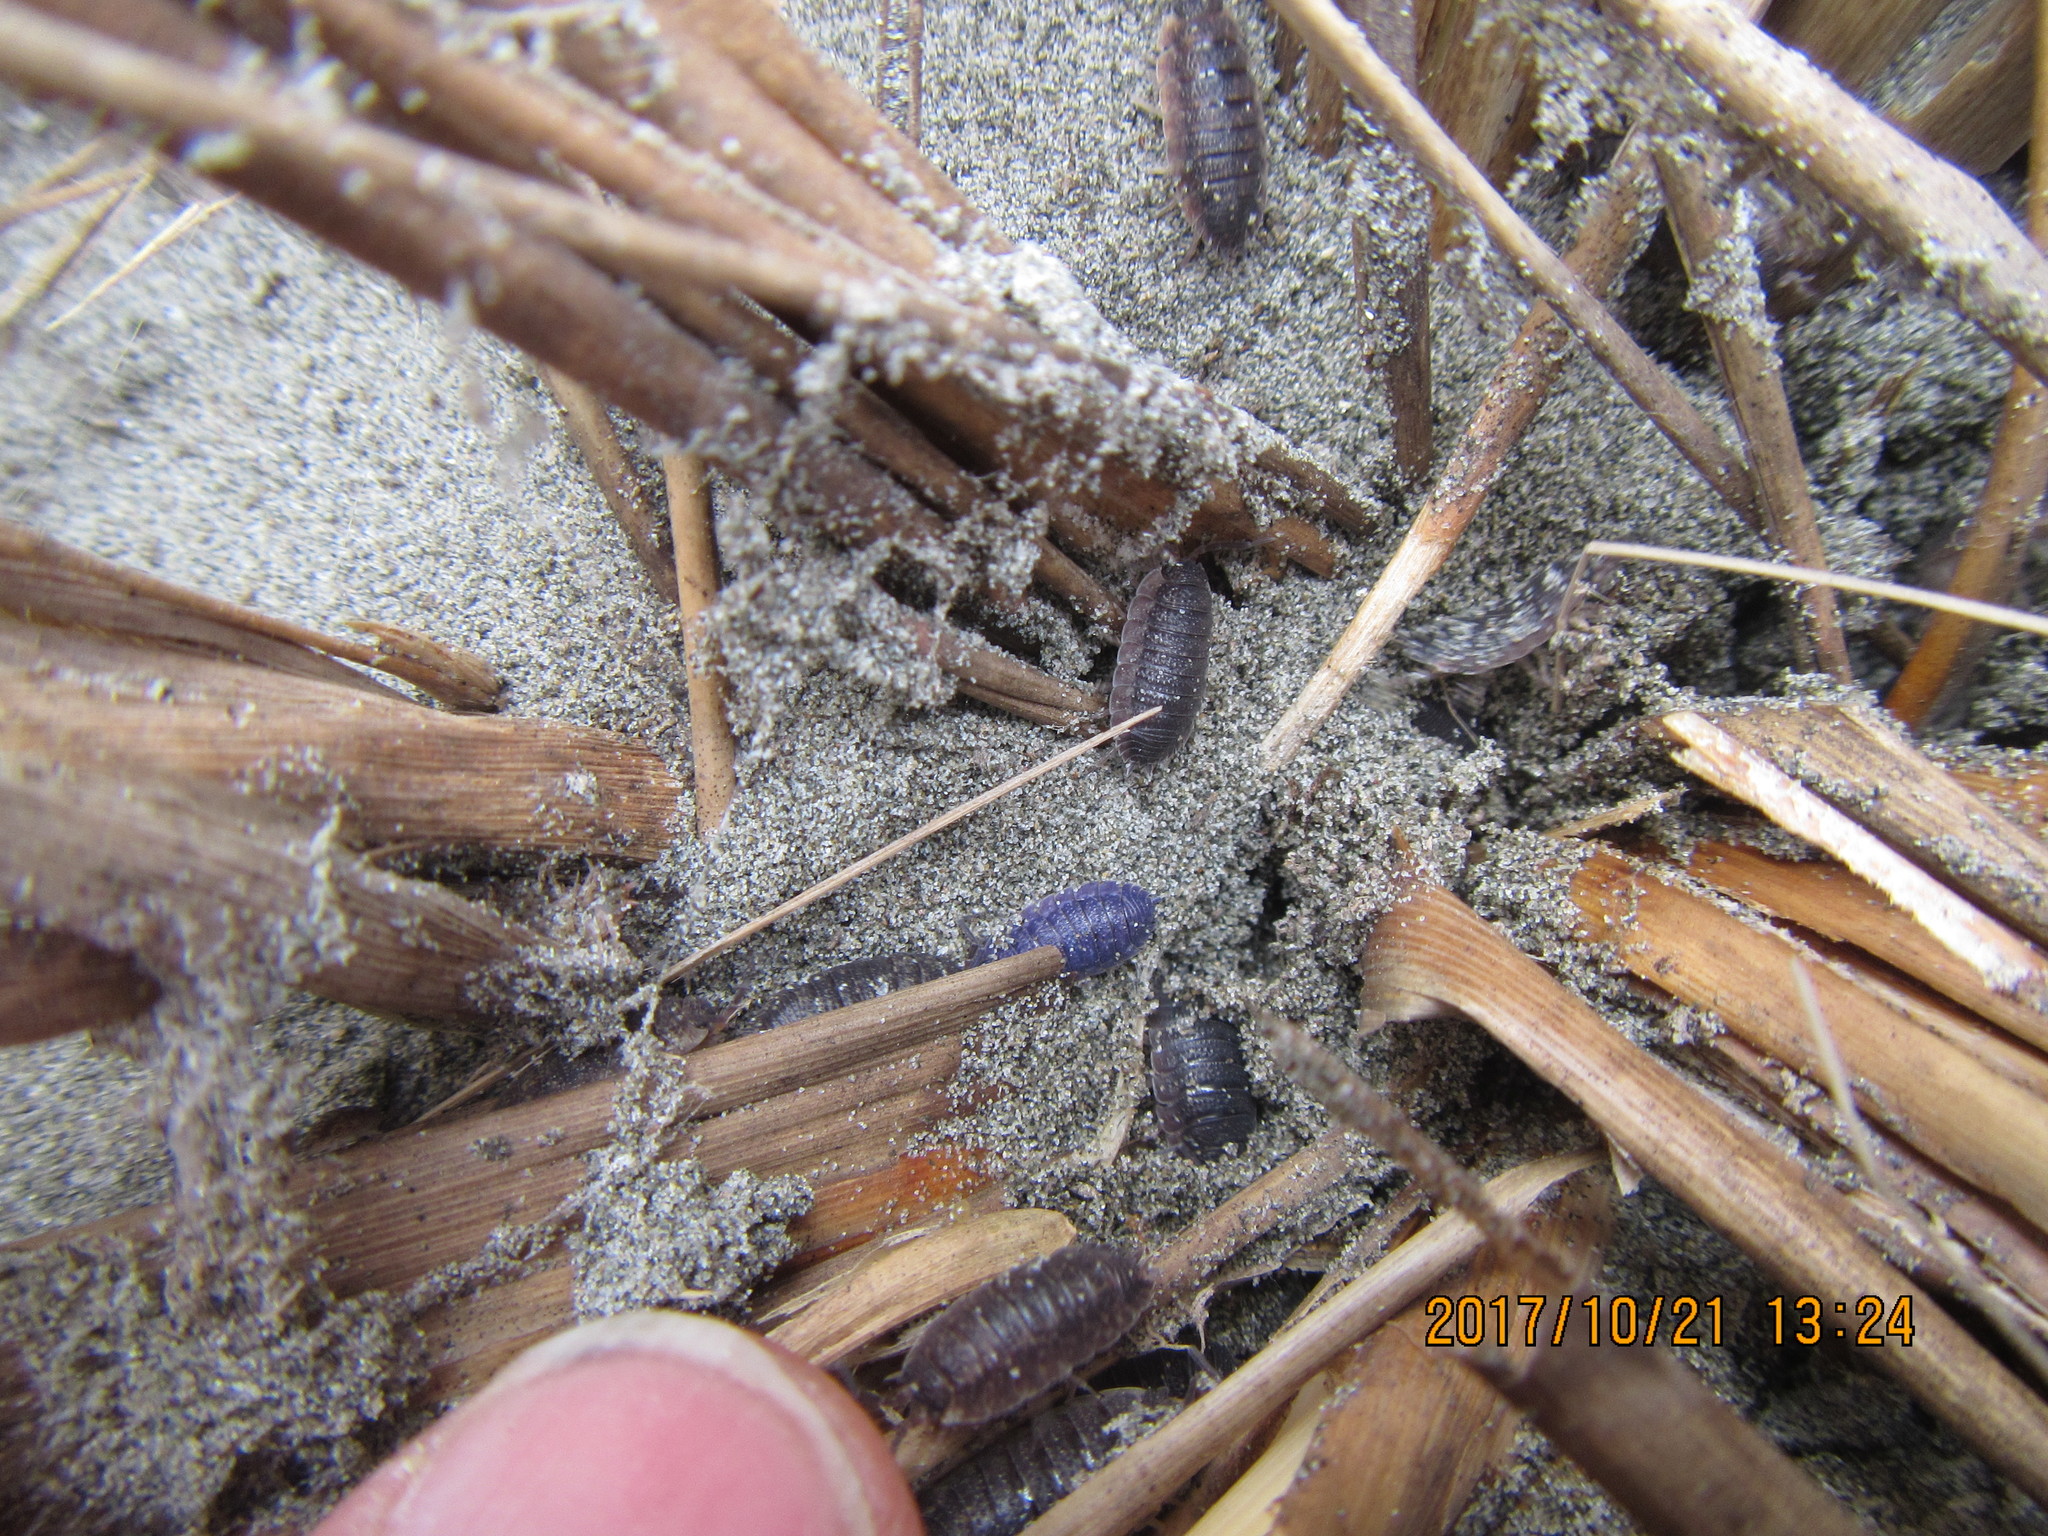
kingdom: Animalia
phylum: Arthropoda
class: Malacostraca
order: Isopoda
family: Porcellionidae
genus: Porcellio
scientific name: Porcellio scaber
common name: Common rough woodlouse
